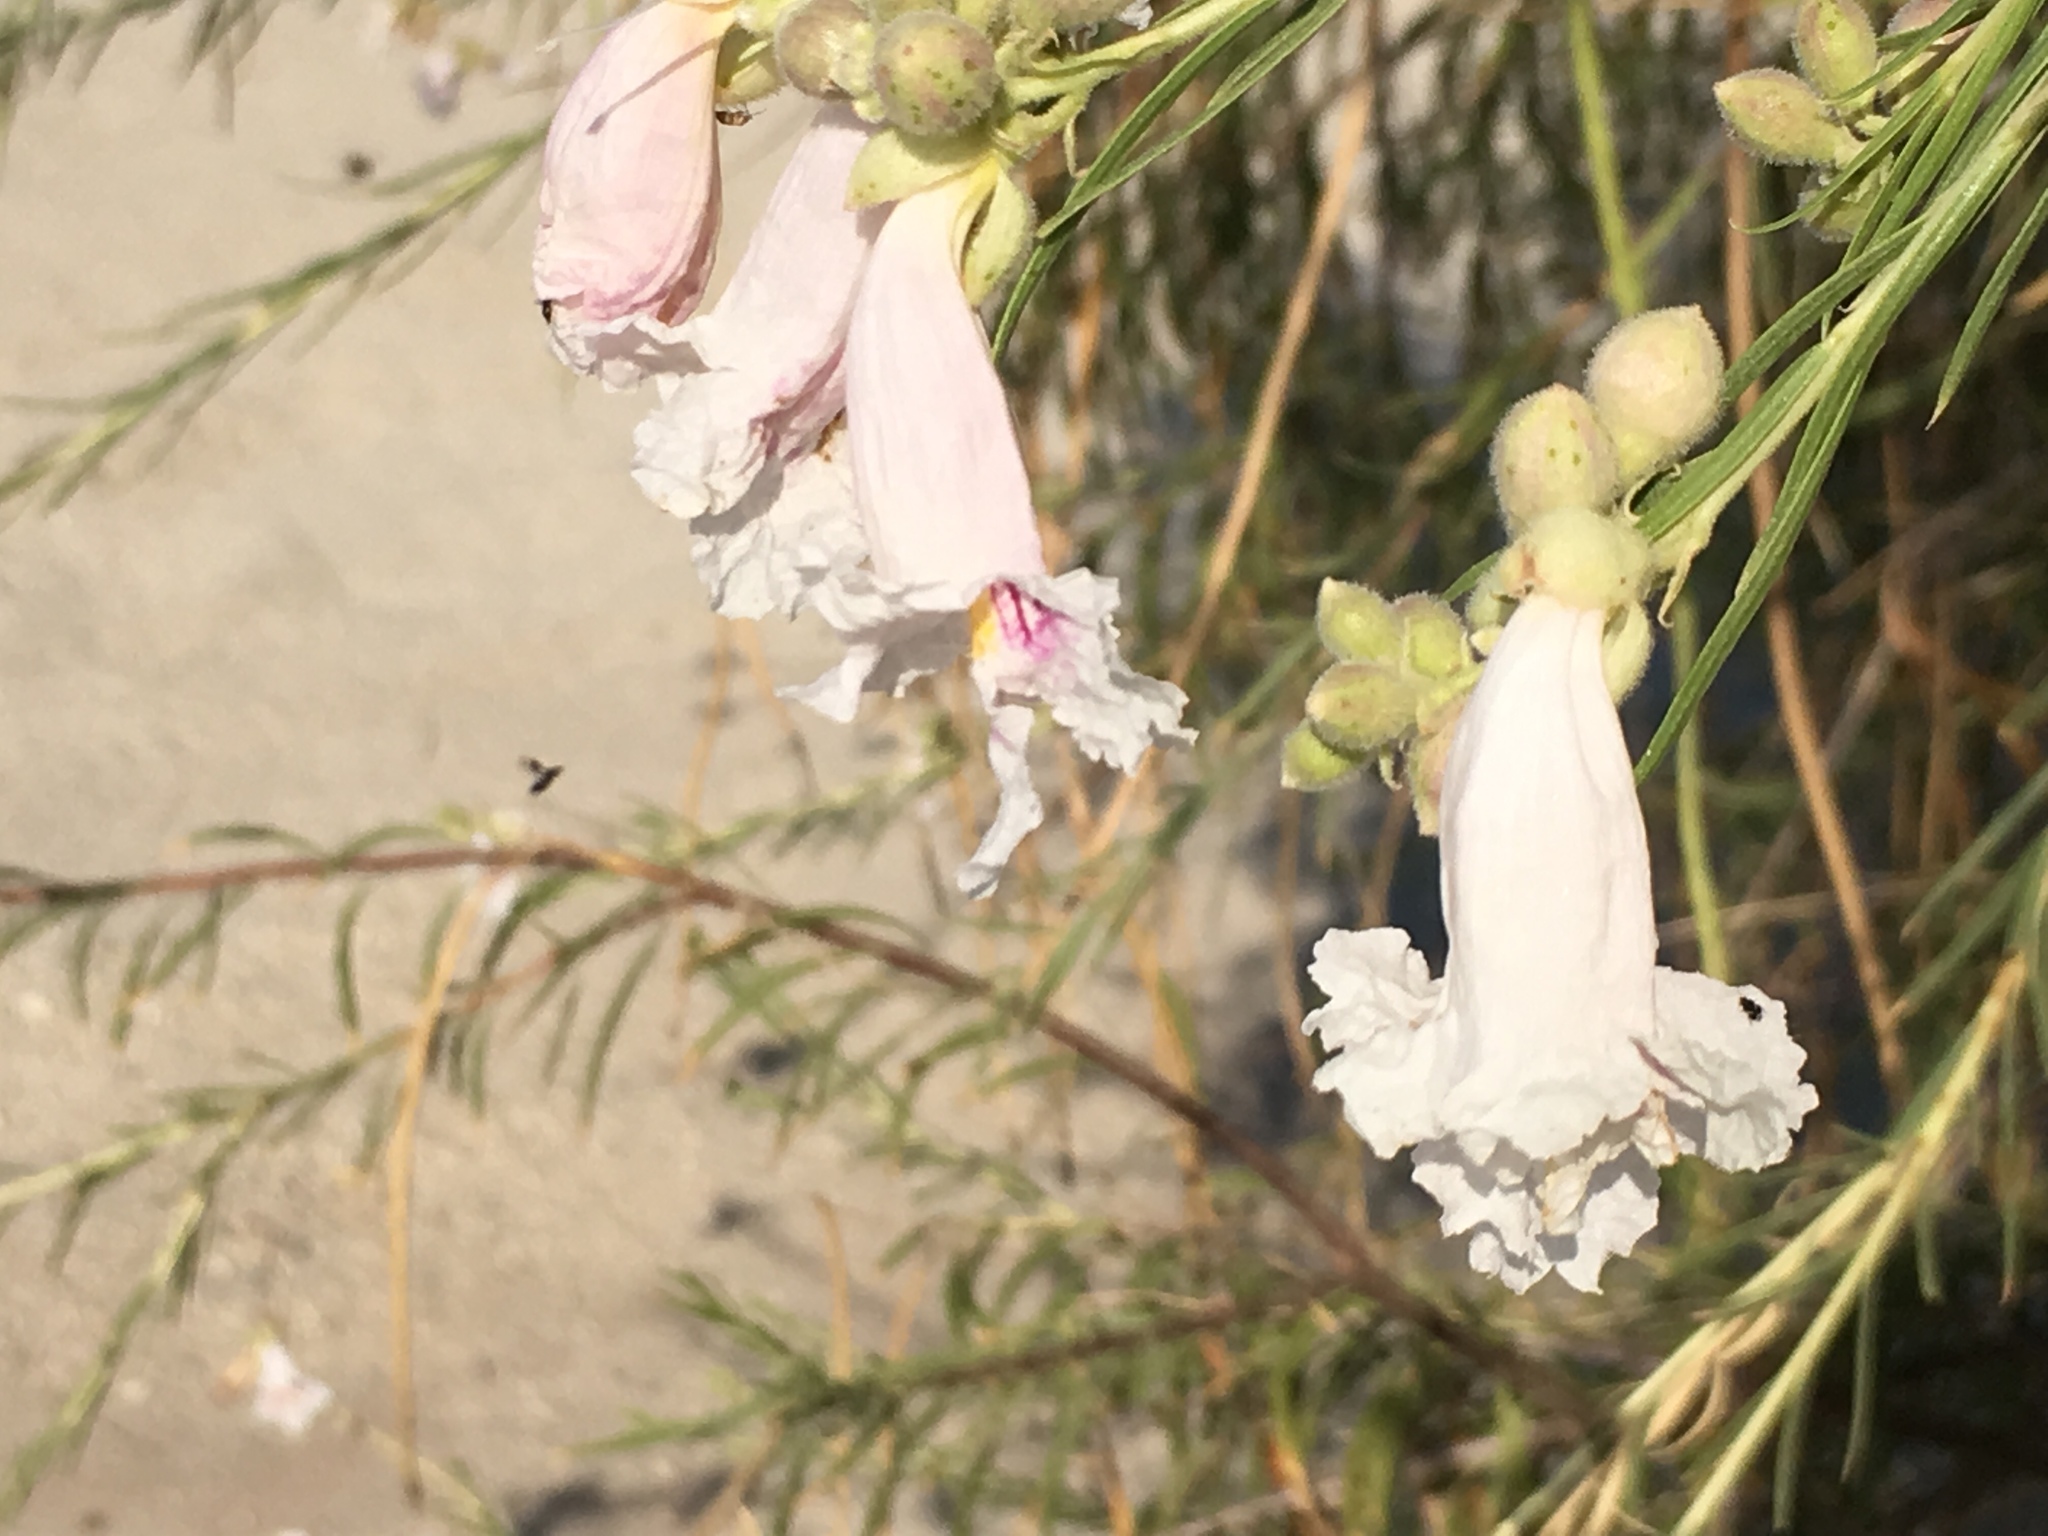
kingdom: Plantae
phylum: Tracheophyta
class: Magnoliopsida
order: Lamiales
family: Bignoniaceae
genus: Chilopsis
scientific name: Chilopsis linearis
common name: Desert-willow
